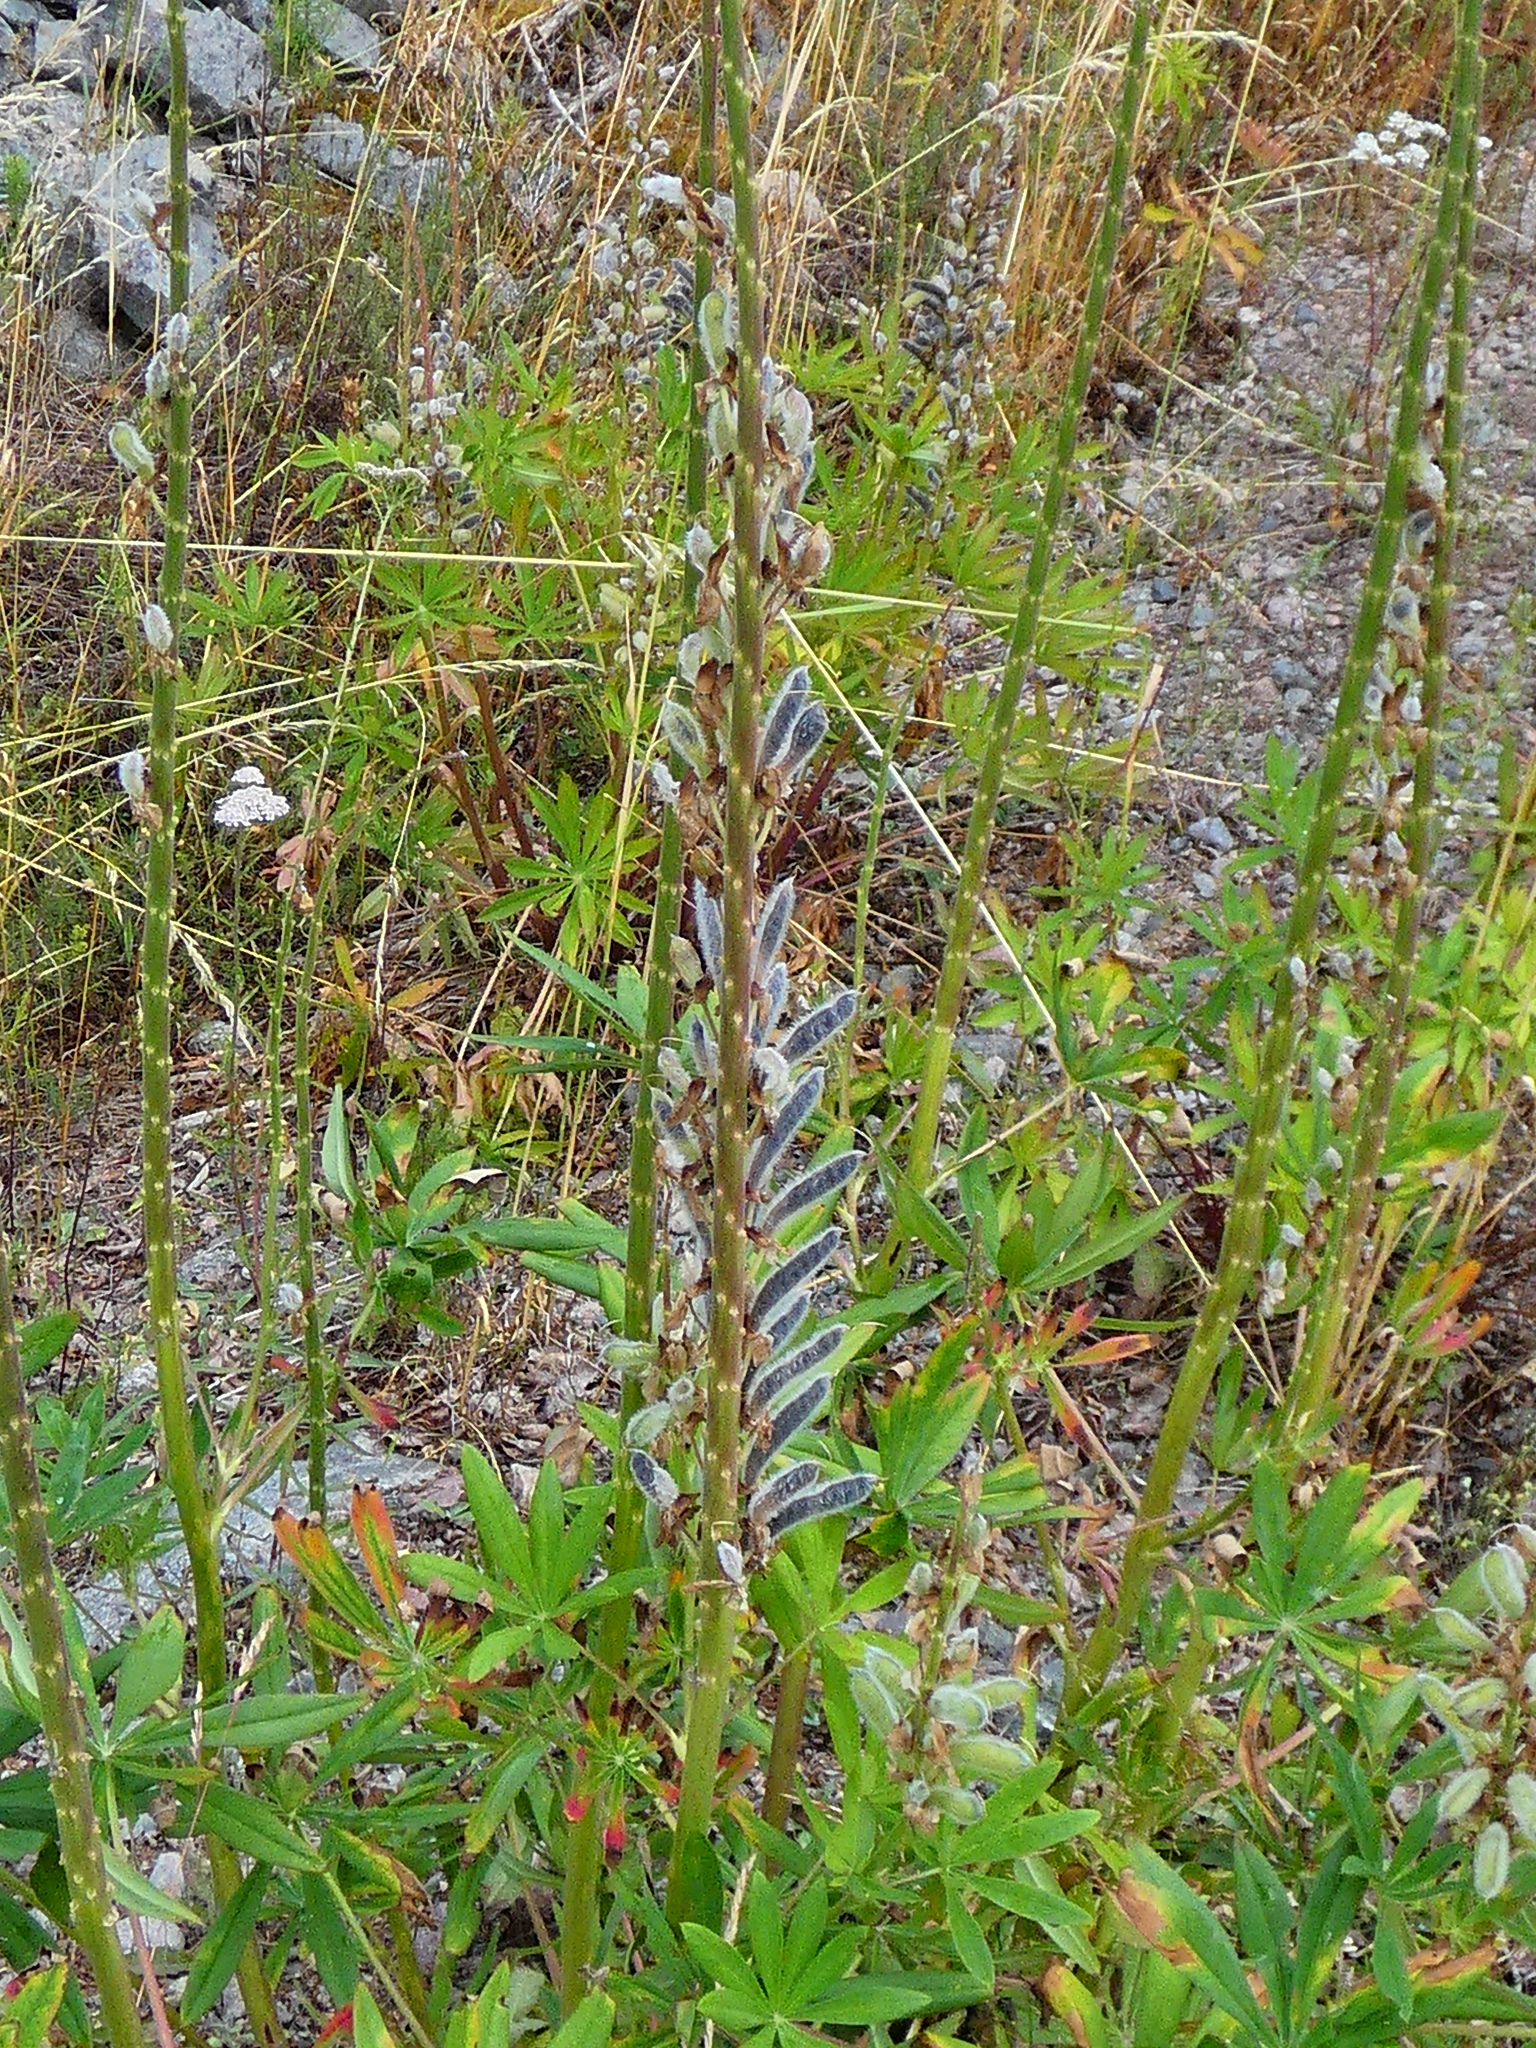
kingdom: Plantae
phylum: Tracheophyta
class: Magnoliopsida
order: Fabales
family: Fabaceae
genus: Lupinus
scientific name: Lupinus polyphyllus
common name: Garden lupin
